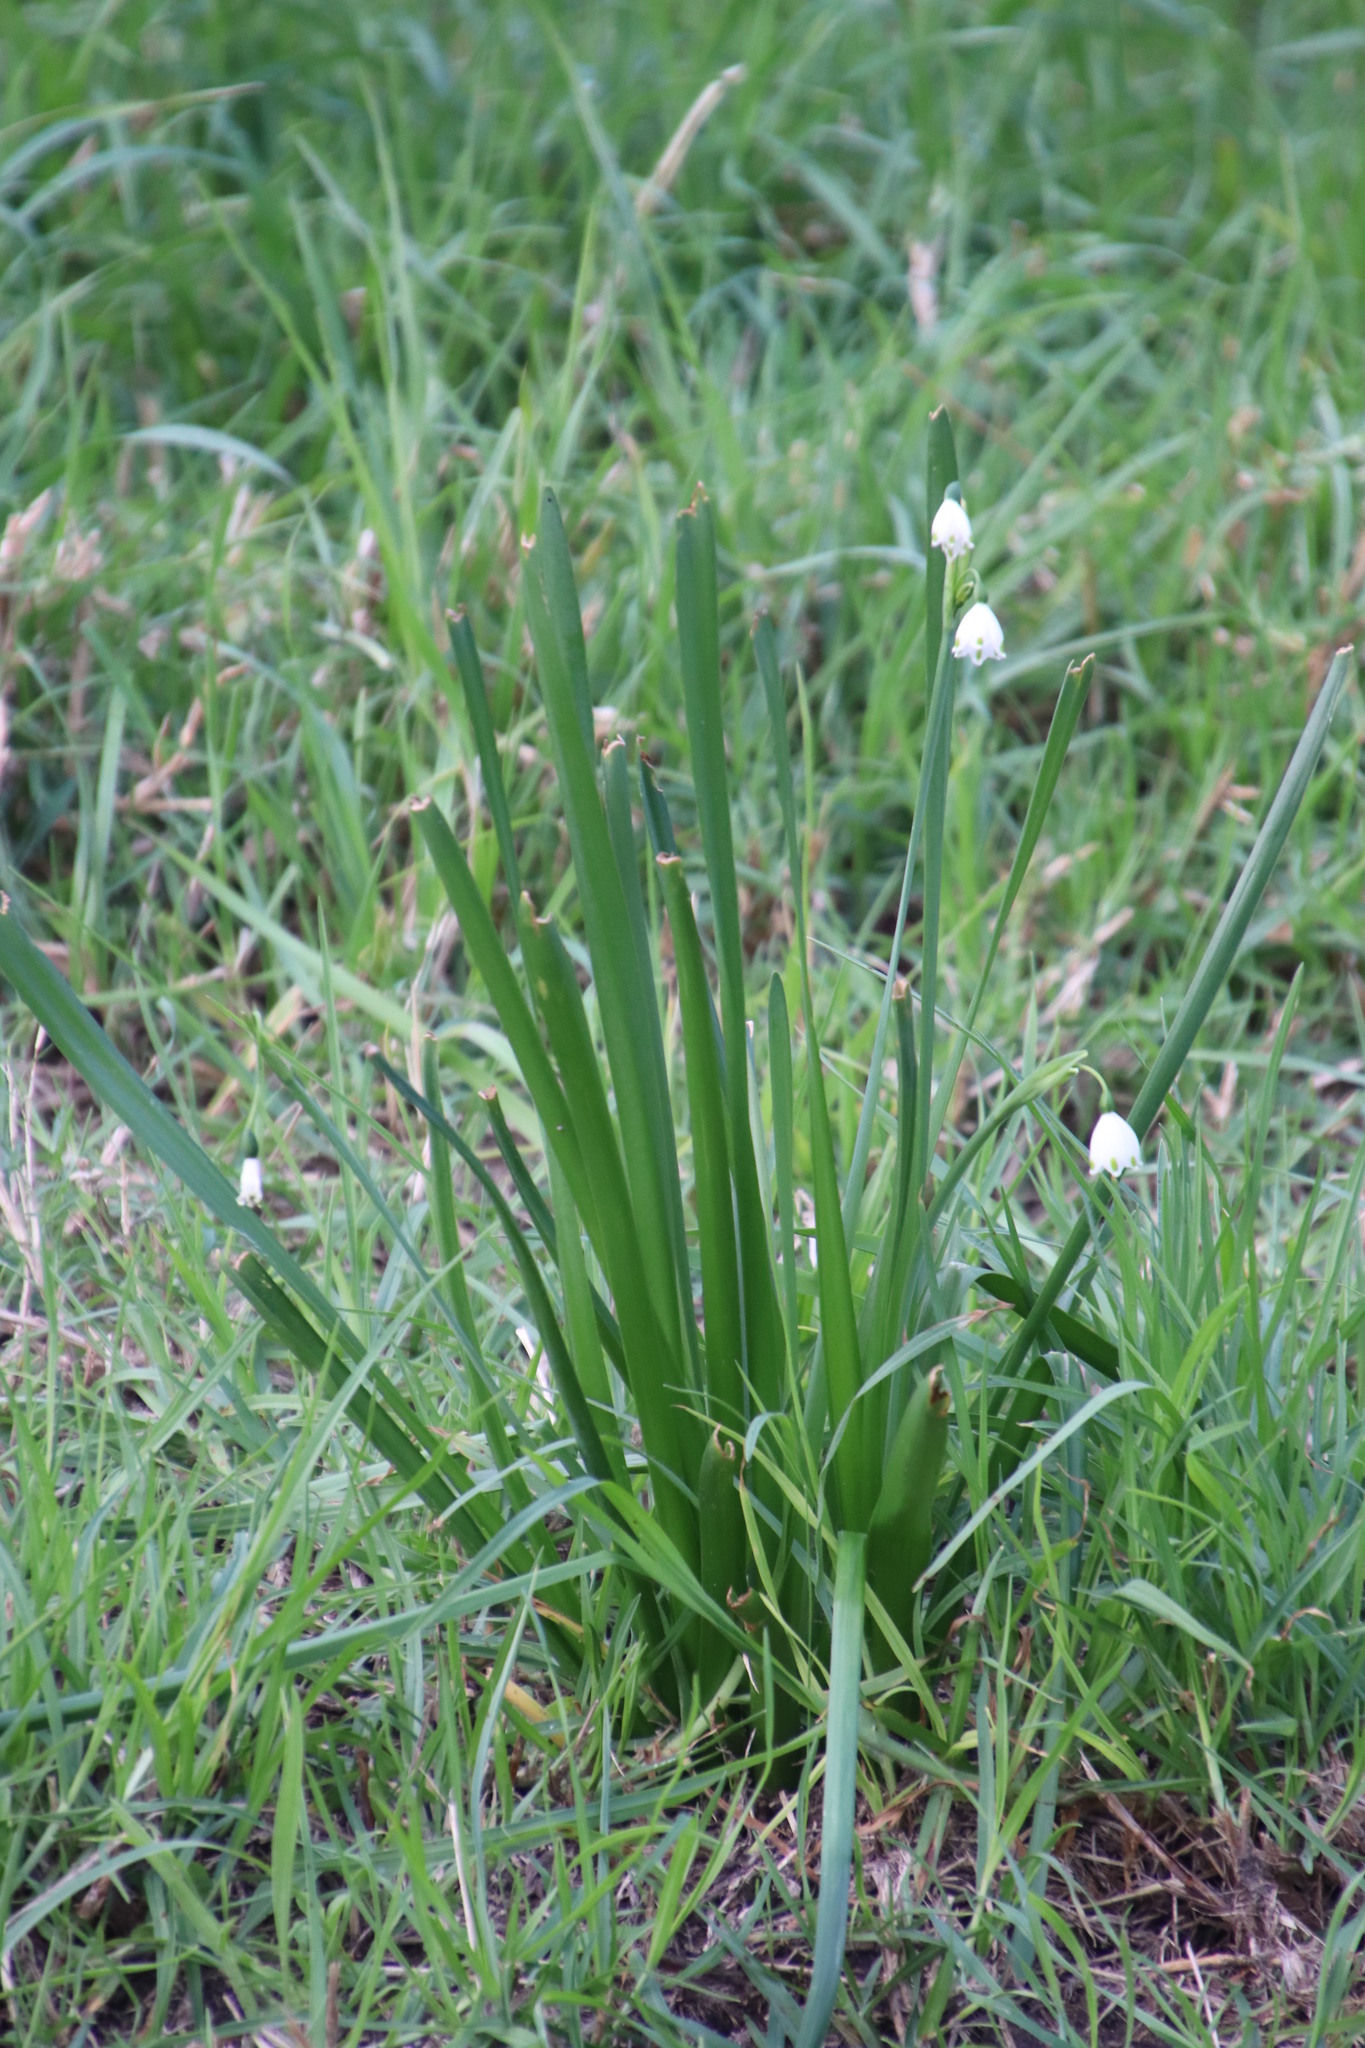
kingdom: Plantae
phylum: Tracheophyta
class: Liliopsida
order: Asparagales
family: Amaryllidaceae
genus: Leucojum
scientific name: Leucojum aestivum
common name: Summer snowflake
